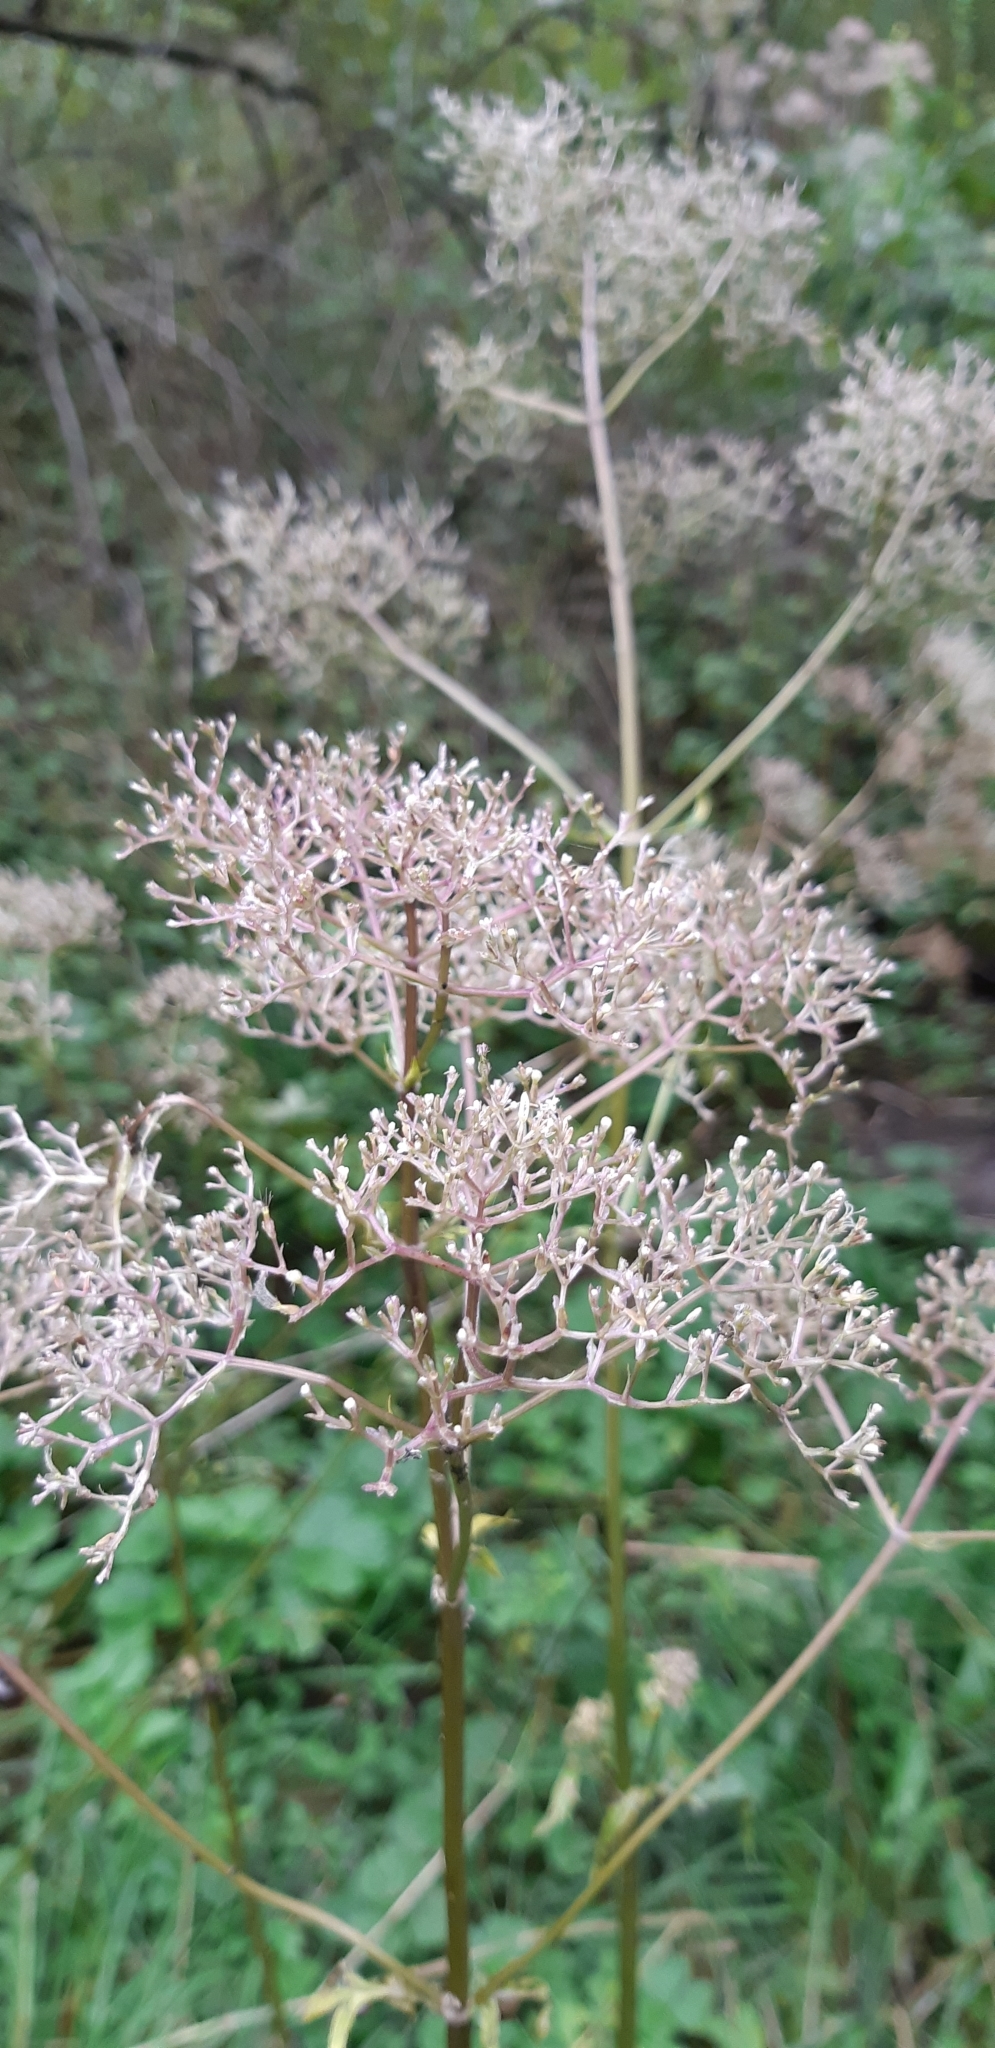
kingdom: Plantae
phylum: Tracheophyta
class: Magnoliopsida
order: Dipsacales
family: Caprifoliaceae
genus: Valeriana
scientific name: Valeriana officinalis
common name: Common valerian
